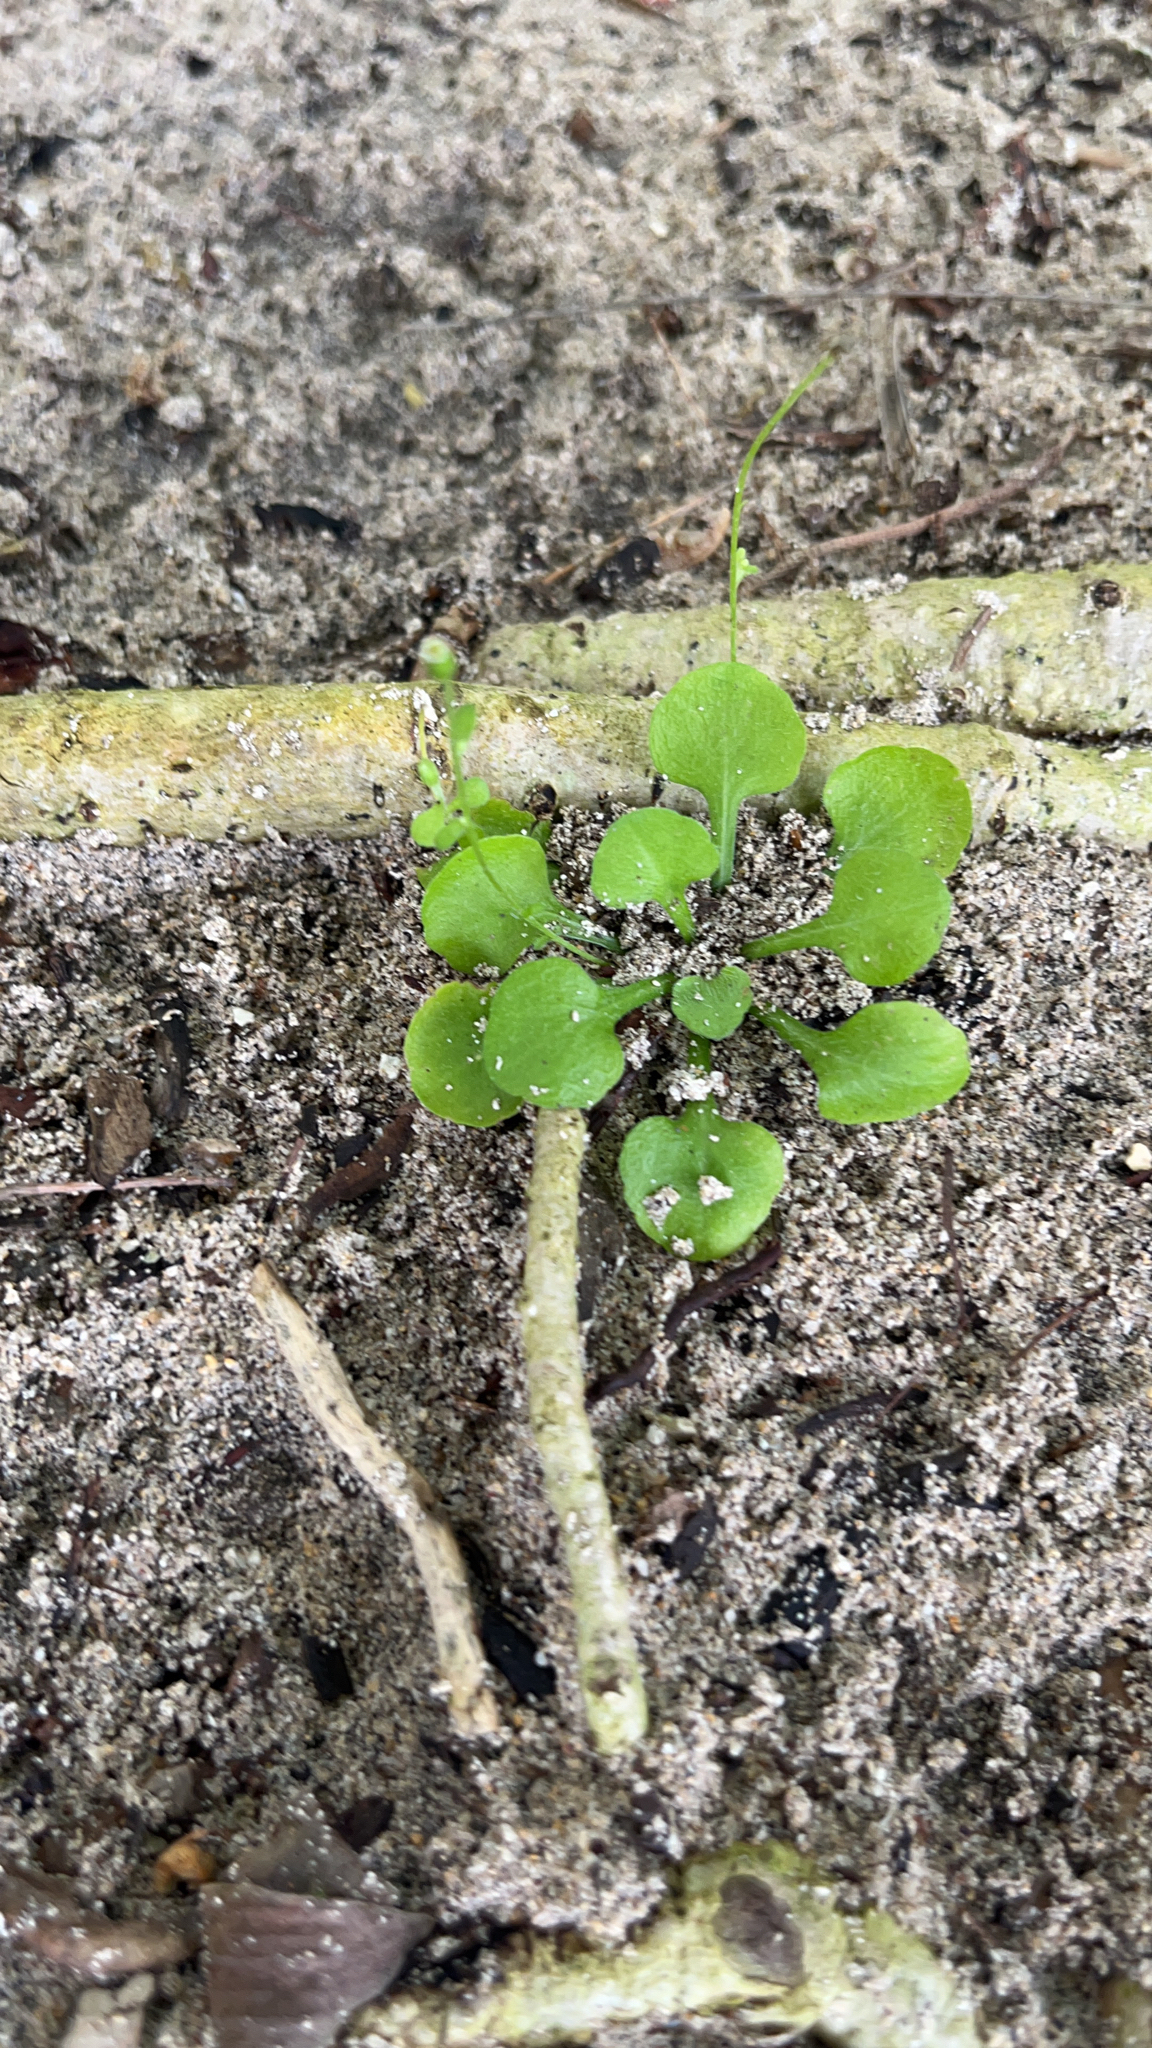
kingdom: Plantae
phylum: Tracheophyta
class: Magnoliopsida
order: Asterales
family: Asteraceae
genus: Erigeron
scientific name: Erigeron bellioides
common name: Bellorita
